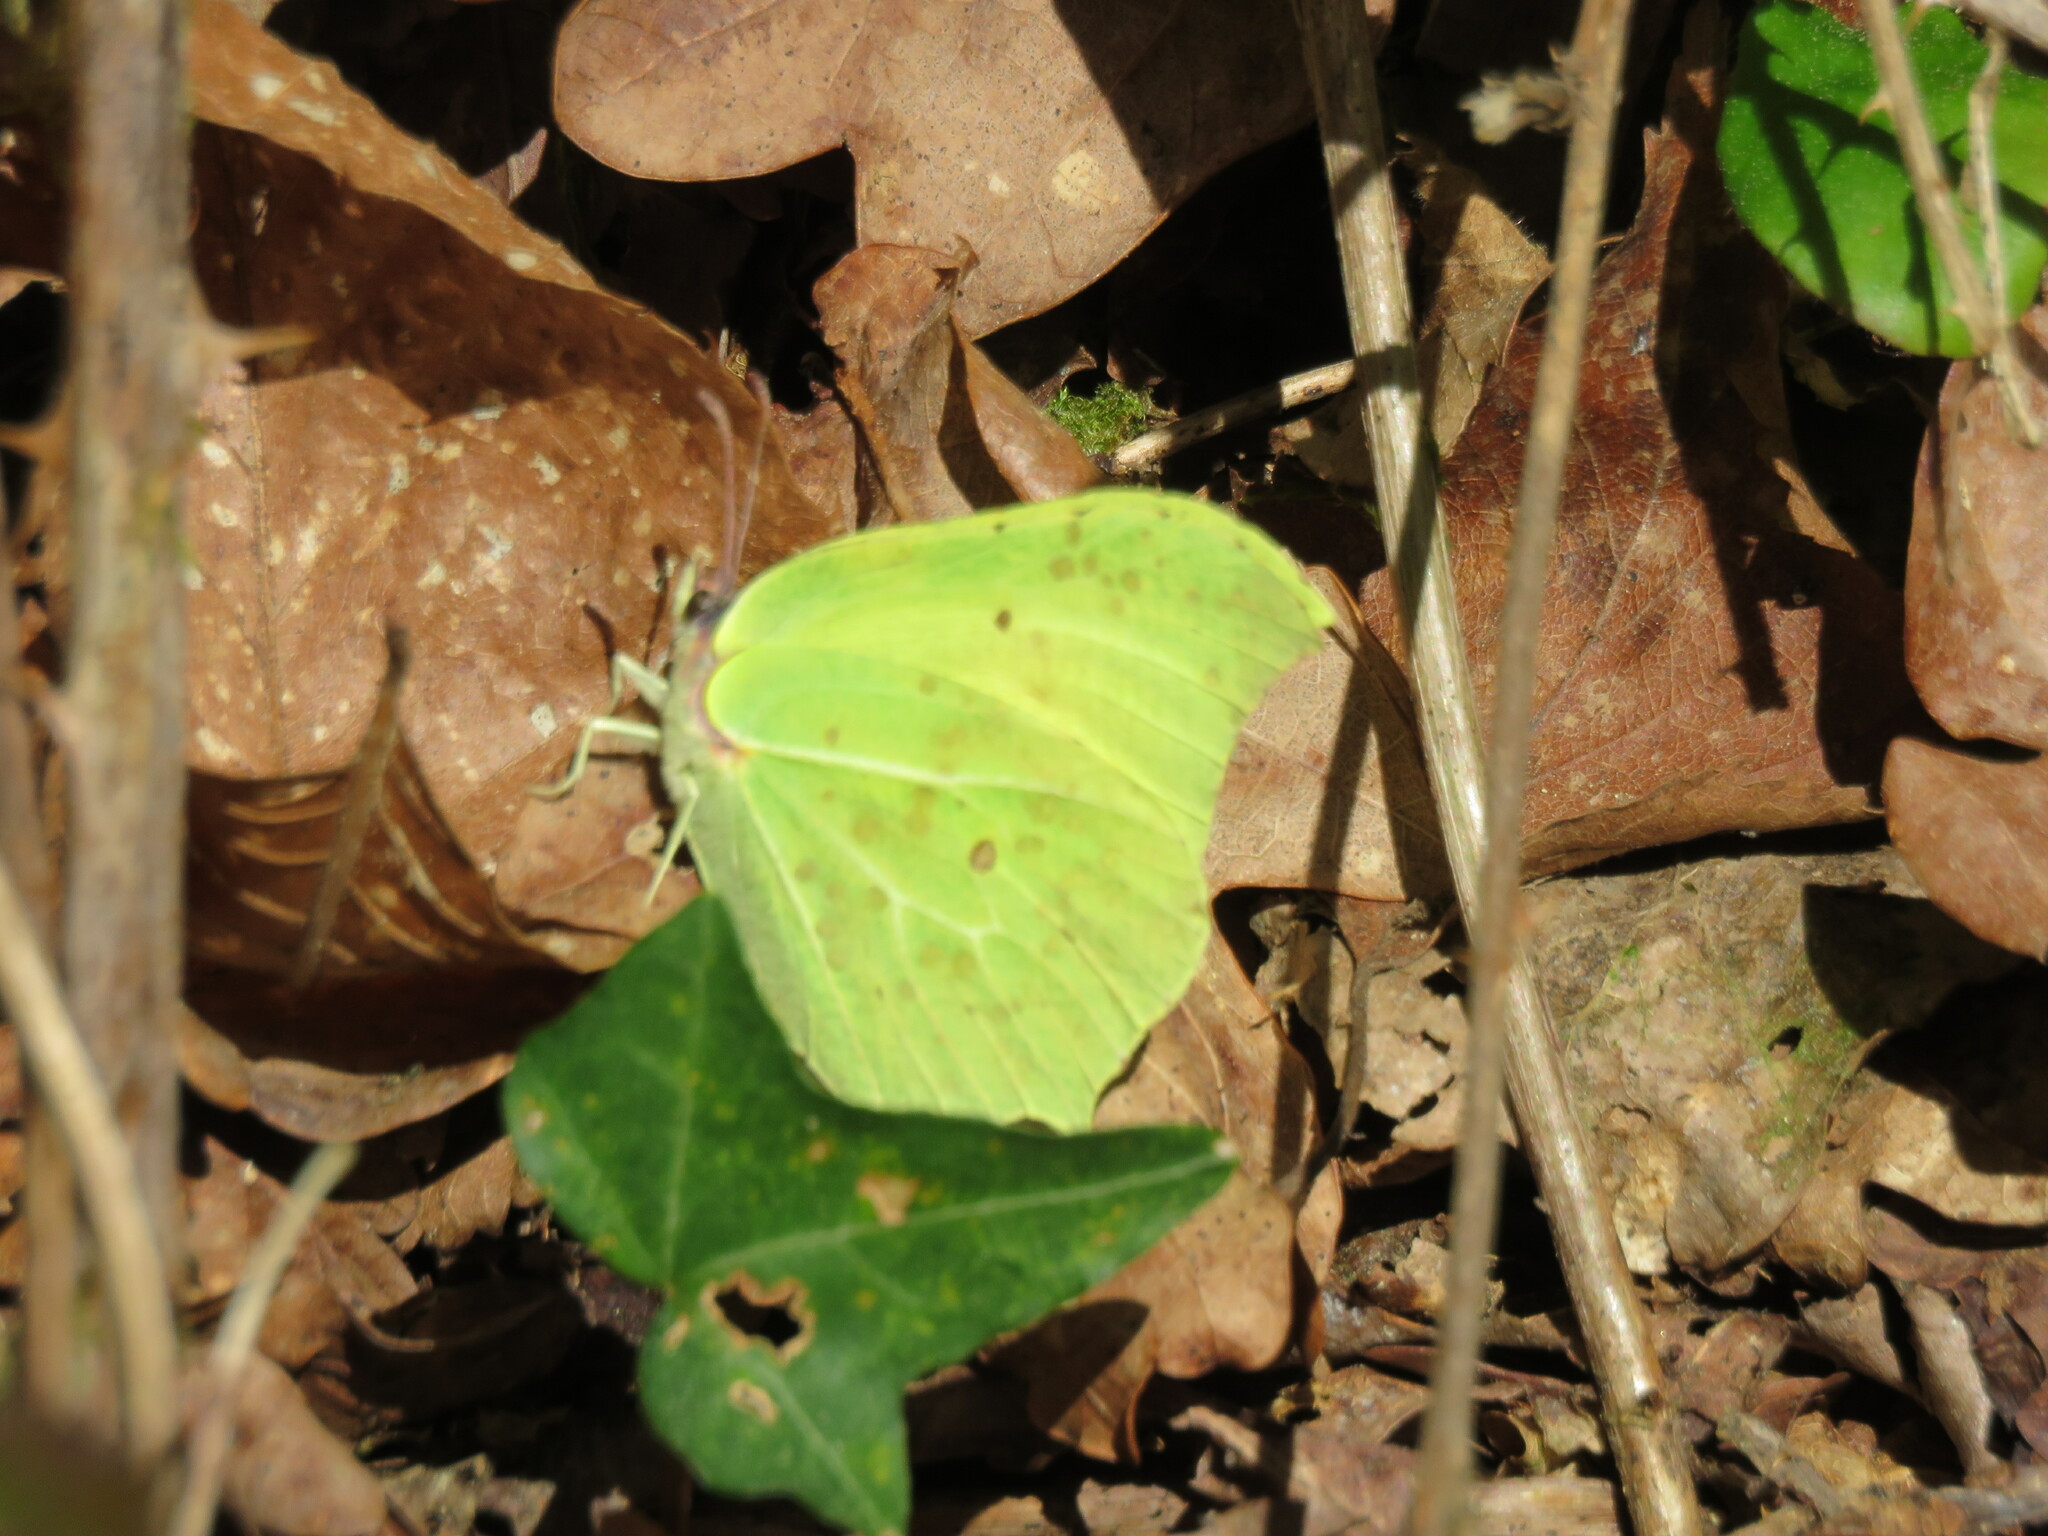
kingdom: Animalia
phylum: Arthropoda
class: Insecta
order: Lepidoptera
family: Pieridae
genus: Gonepteryx
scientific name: Gonepteryx rhamni
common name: Brimstone
